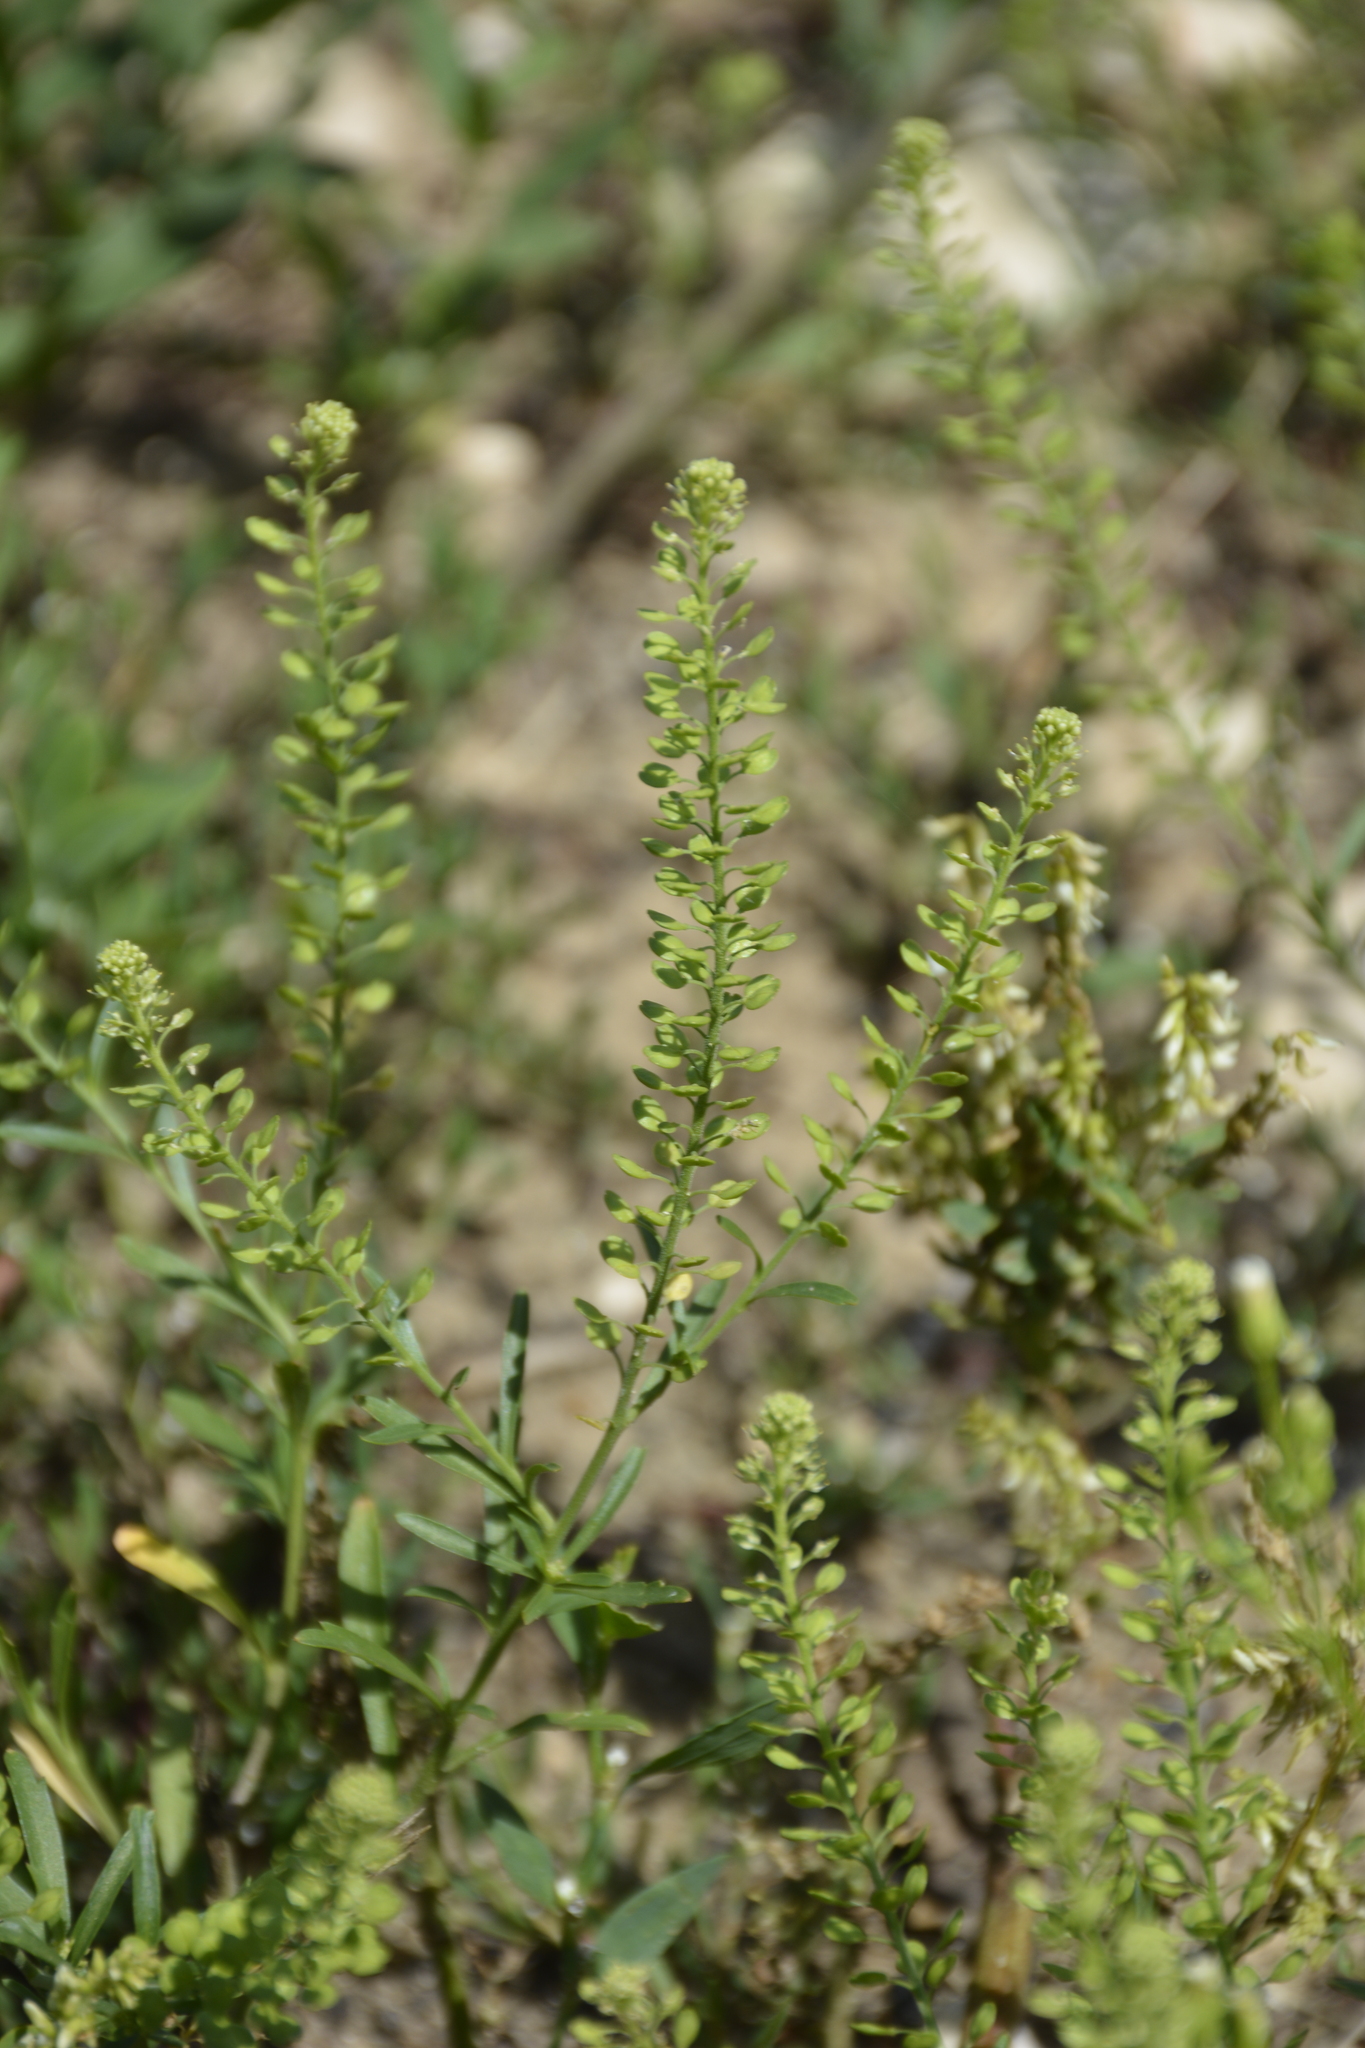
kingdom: Plantae
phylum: Tracheophyta
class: Magnoliopsida
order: Brassicales
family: Brassicaceae
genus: Lepidium
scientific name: Lepidium densiflorum
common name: Miner's pepperwort
